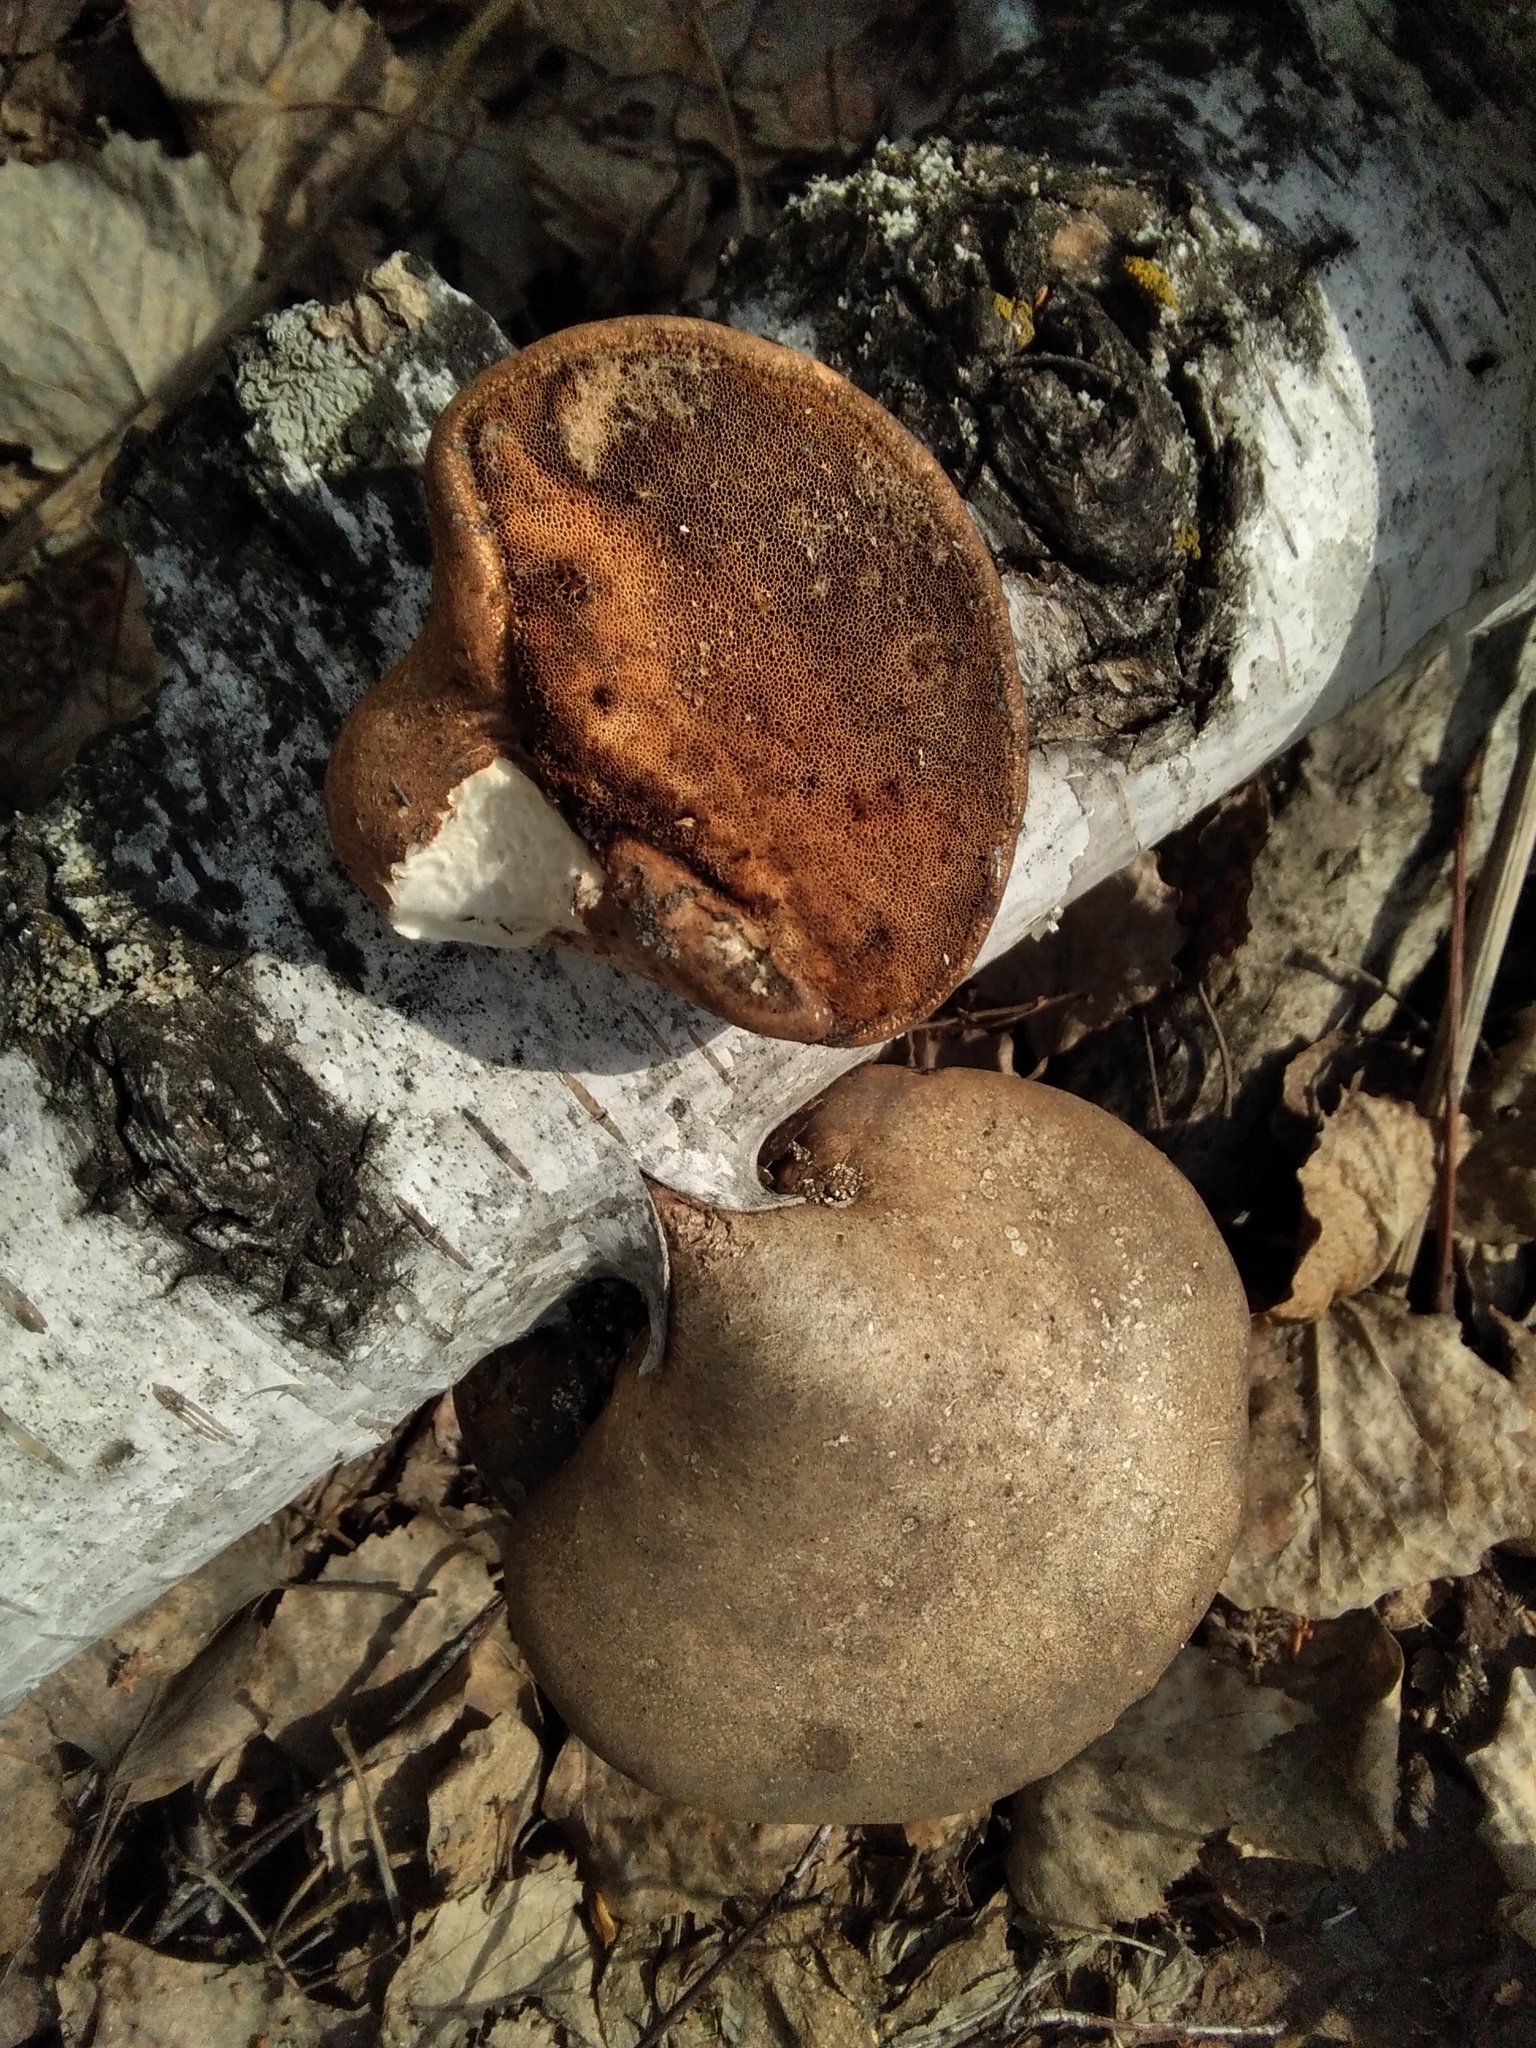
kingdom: Fungi
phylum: Basidiomycota
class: Agaricomycetes
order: Polyporales
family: Fomitopsidaceae
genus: Fomitopsis
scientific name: Fomitopsis betulina
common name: Birch polypore
